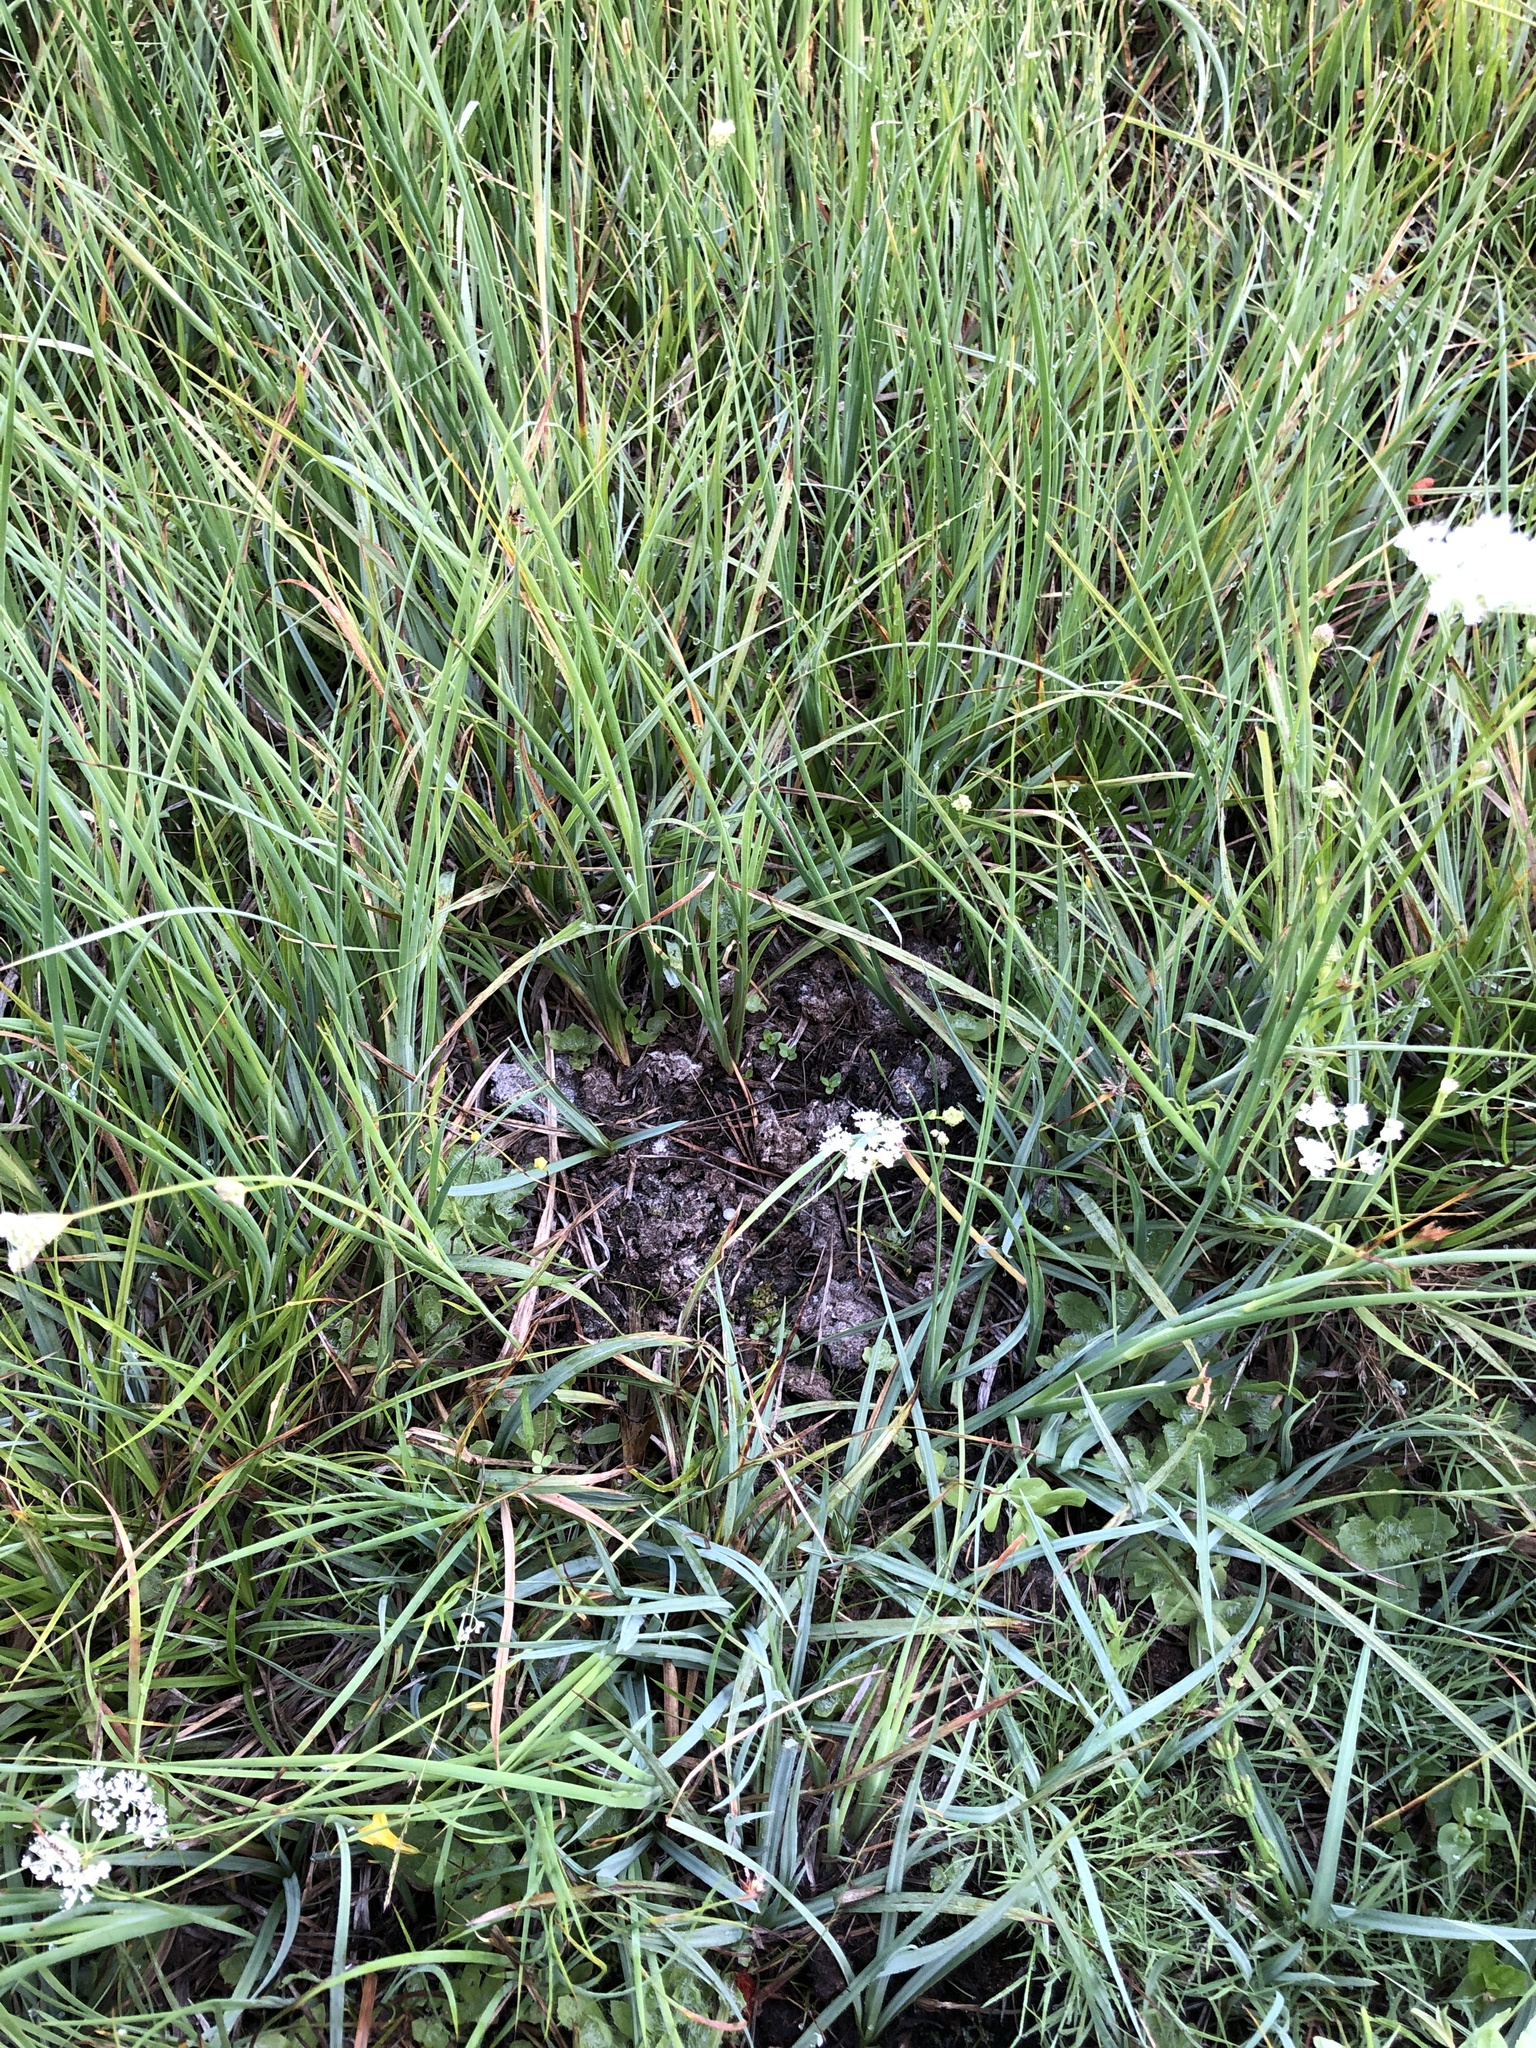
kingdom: Fungi
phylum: Basidiomycota
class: Agaricomycetes
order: Agaricales
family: Psathyrellaceae
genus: Narcissea
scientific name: Narcissea cordispora
